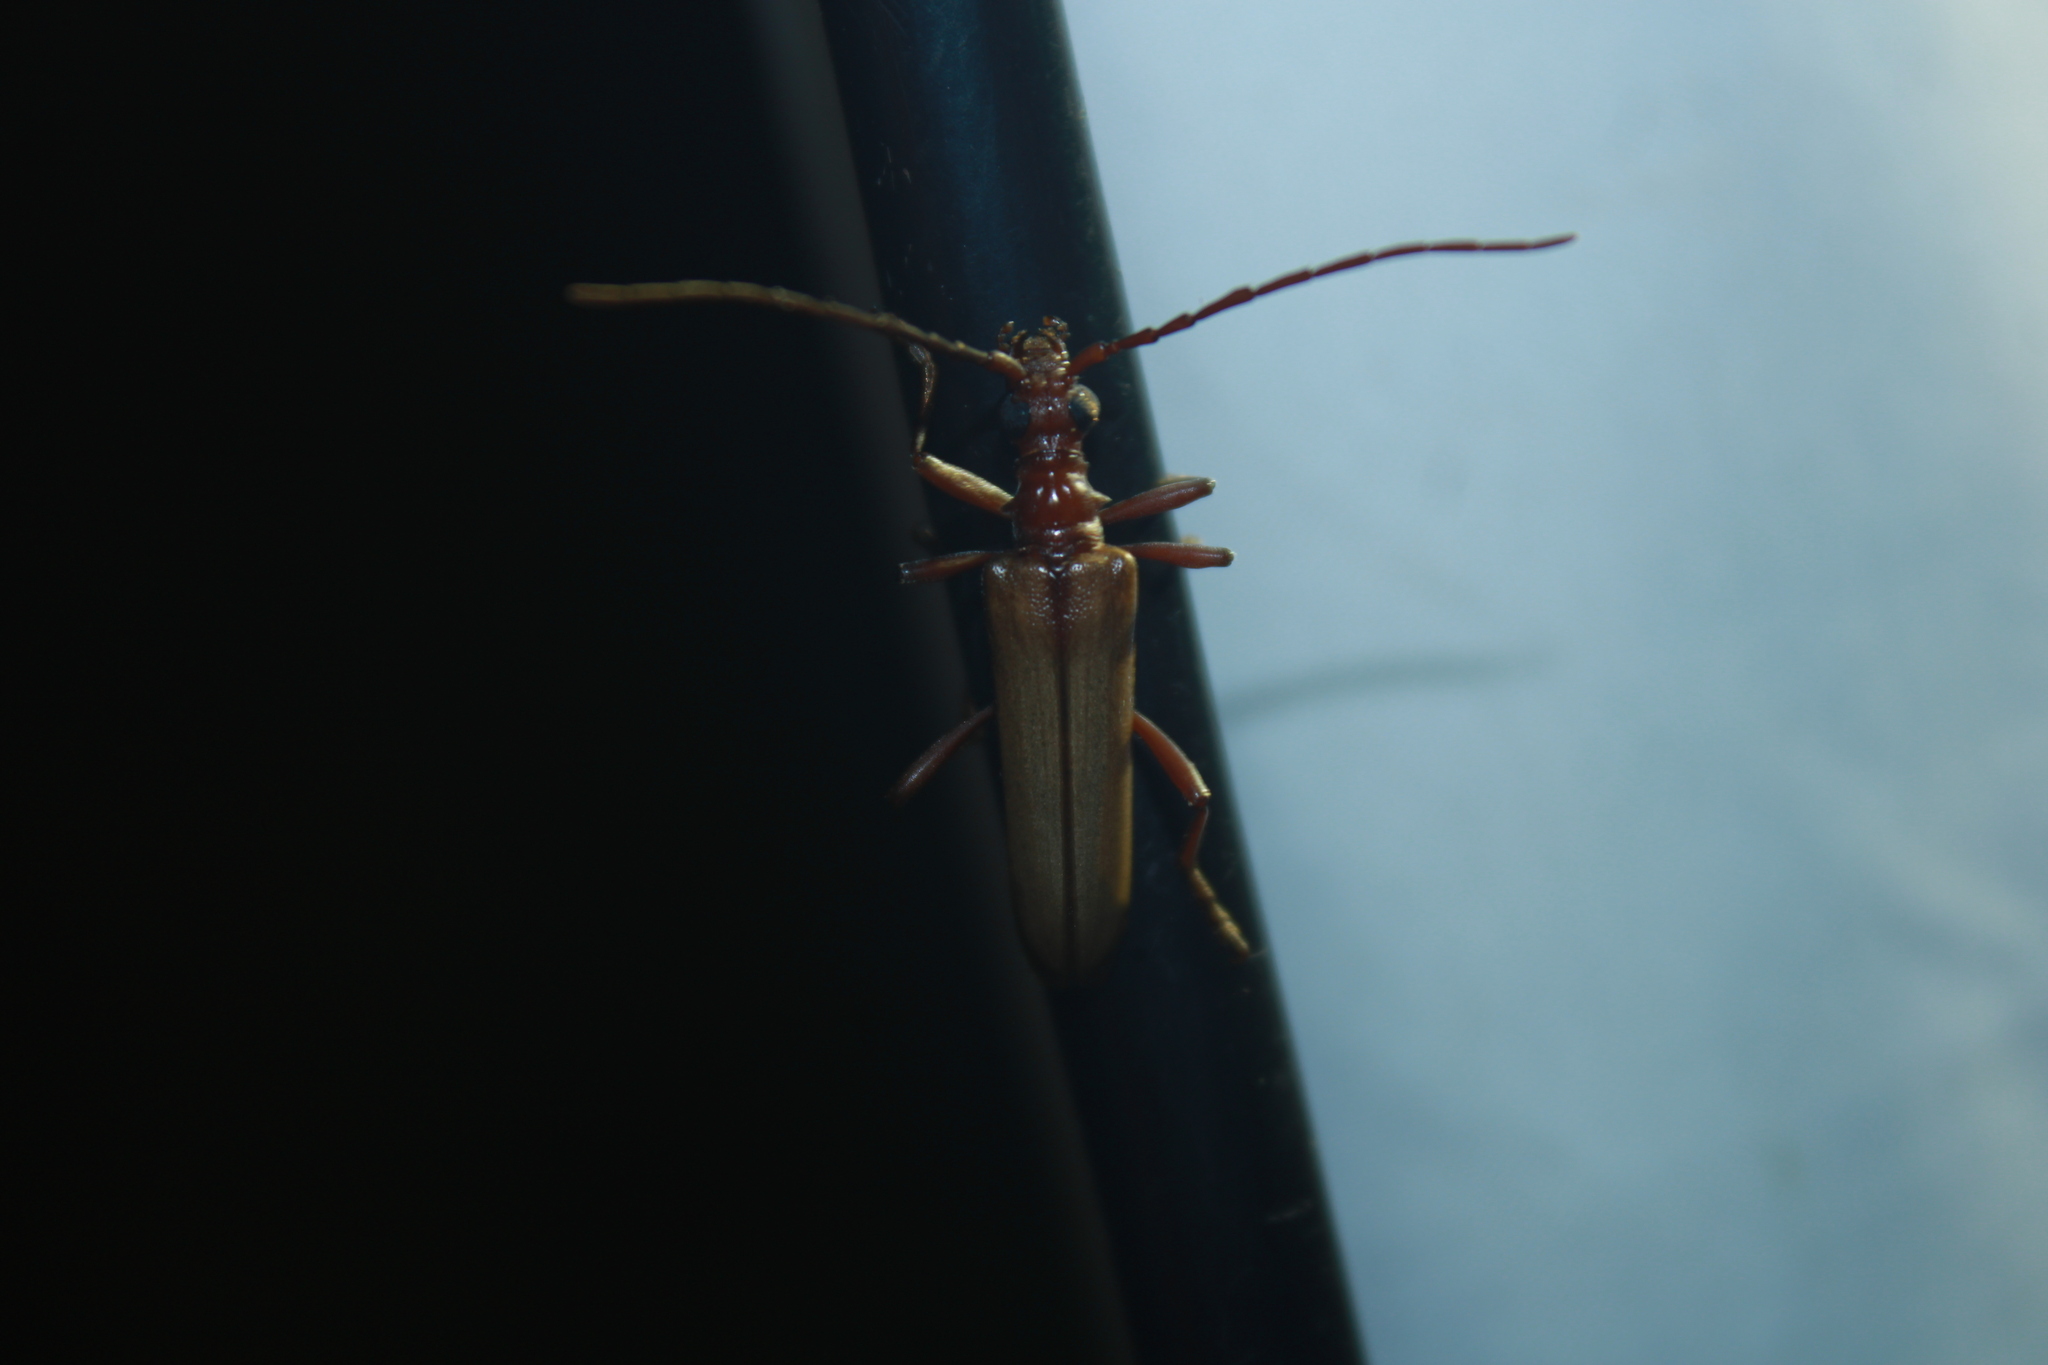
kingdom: Animalia
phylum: Arthropoda
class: Insecta
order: Coleoptera
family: Cerambycidae
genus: Centrodera
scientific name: Centrodera decolorata
